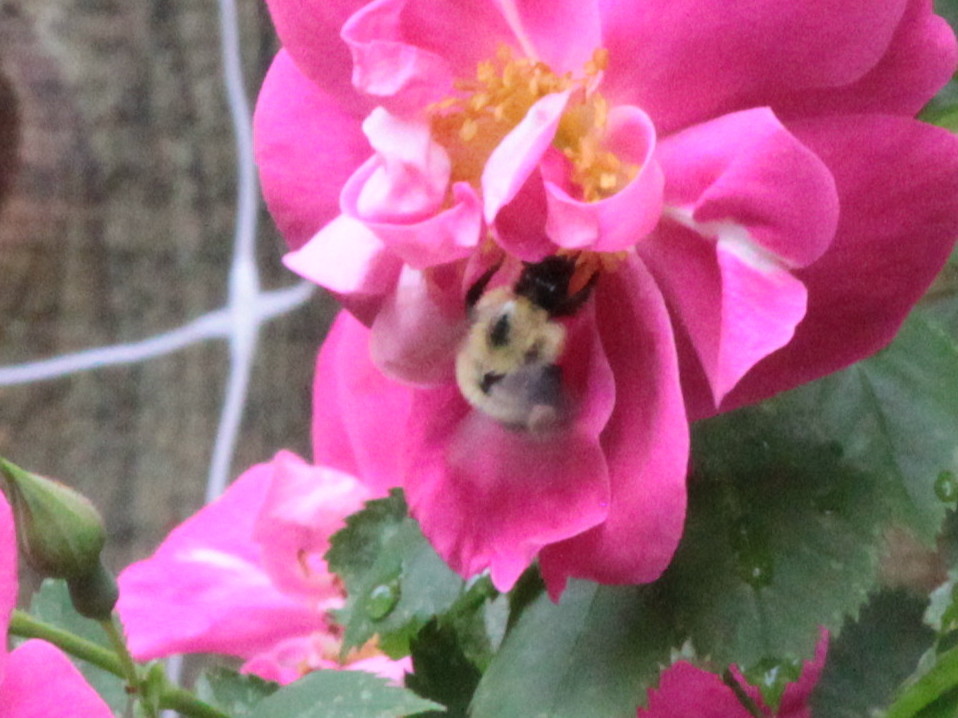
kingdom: Animalia
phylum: Arthropoda
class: Insecta
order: Hymenoptera
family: Apidae
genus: Bombus
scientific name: Bombus vagans
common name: Half-black bumble bee
